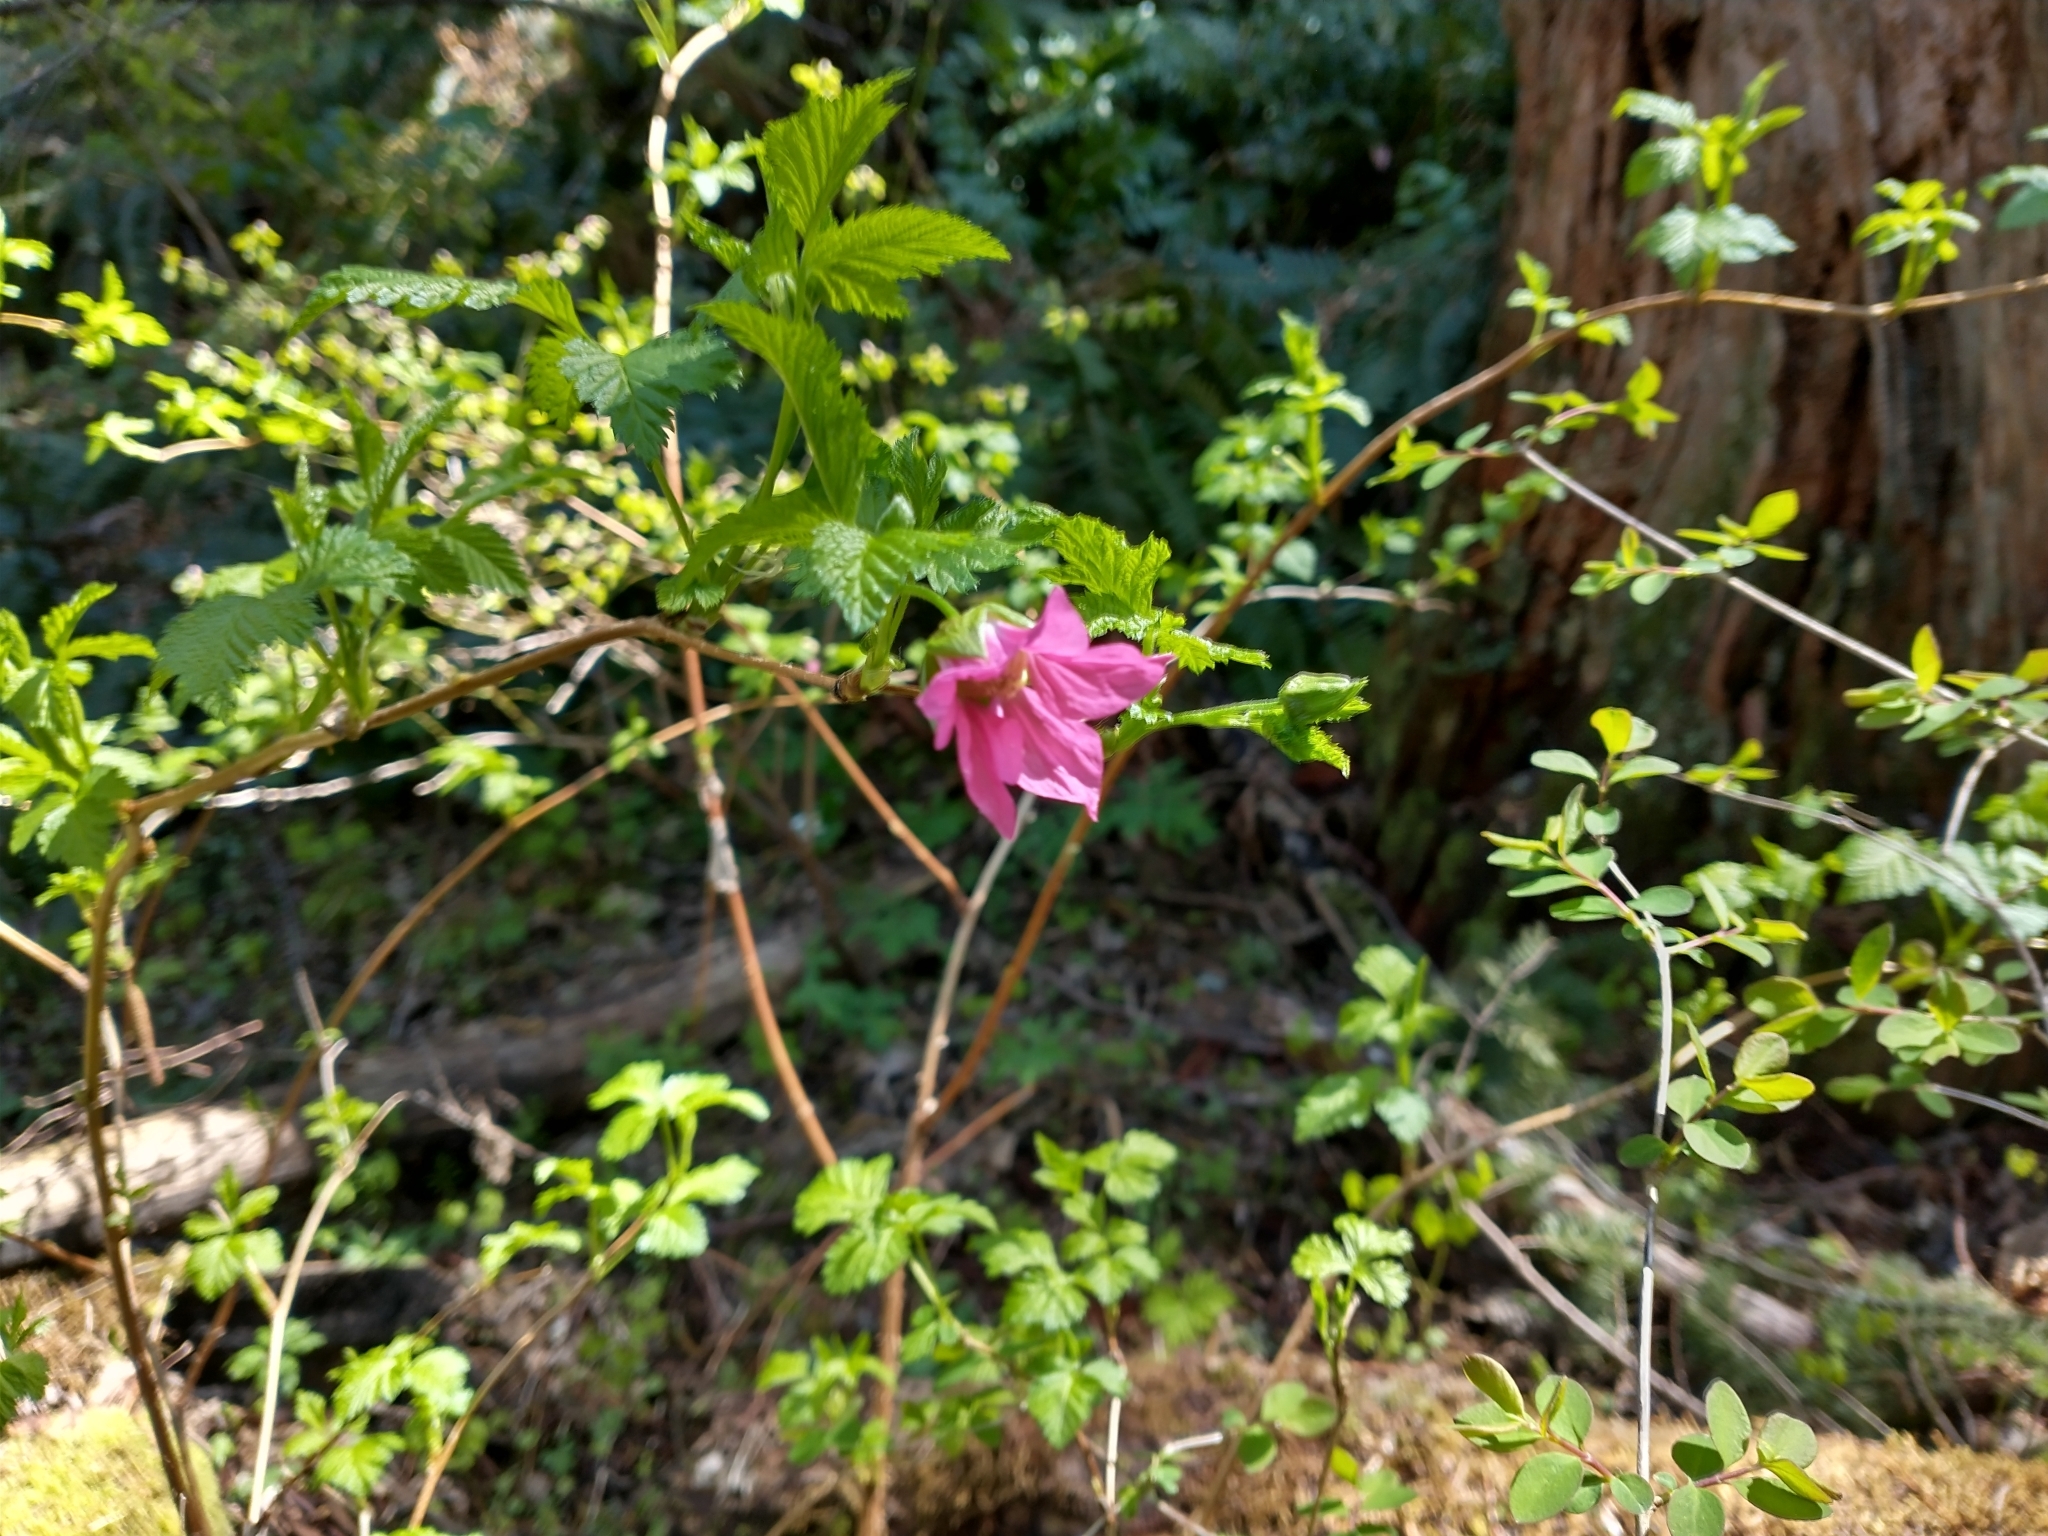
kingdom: Plantae
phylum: Tracheophyta
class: Magnoliopsida
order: Rosales
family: Rosaceae
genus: Rubus
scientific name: Rubus spectabilis
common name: Salmonberry
